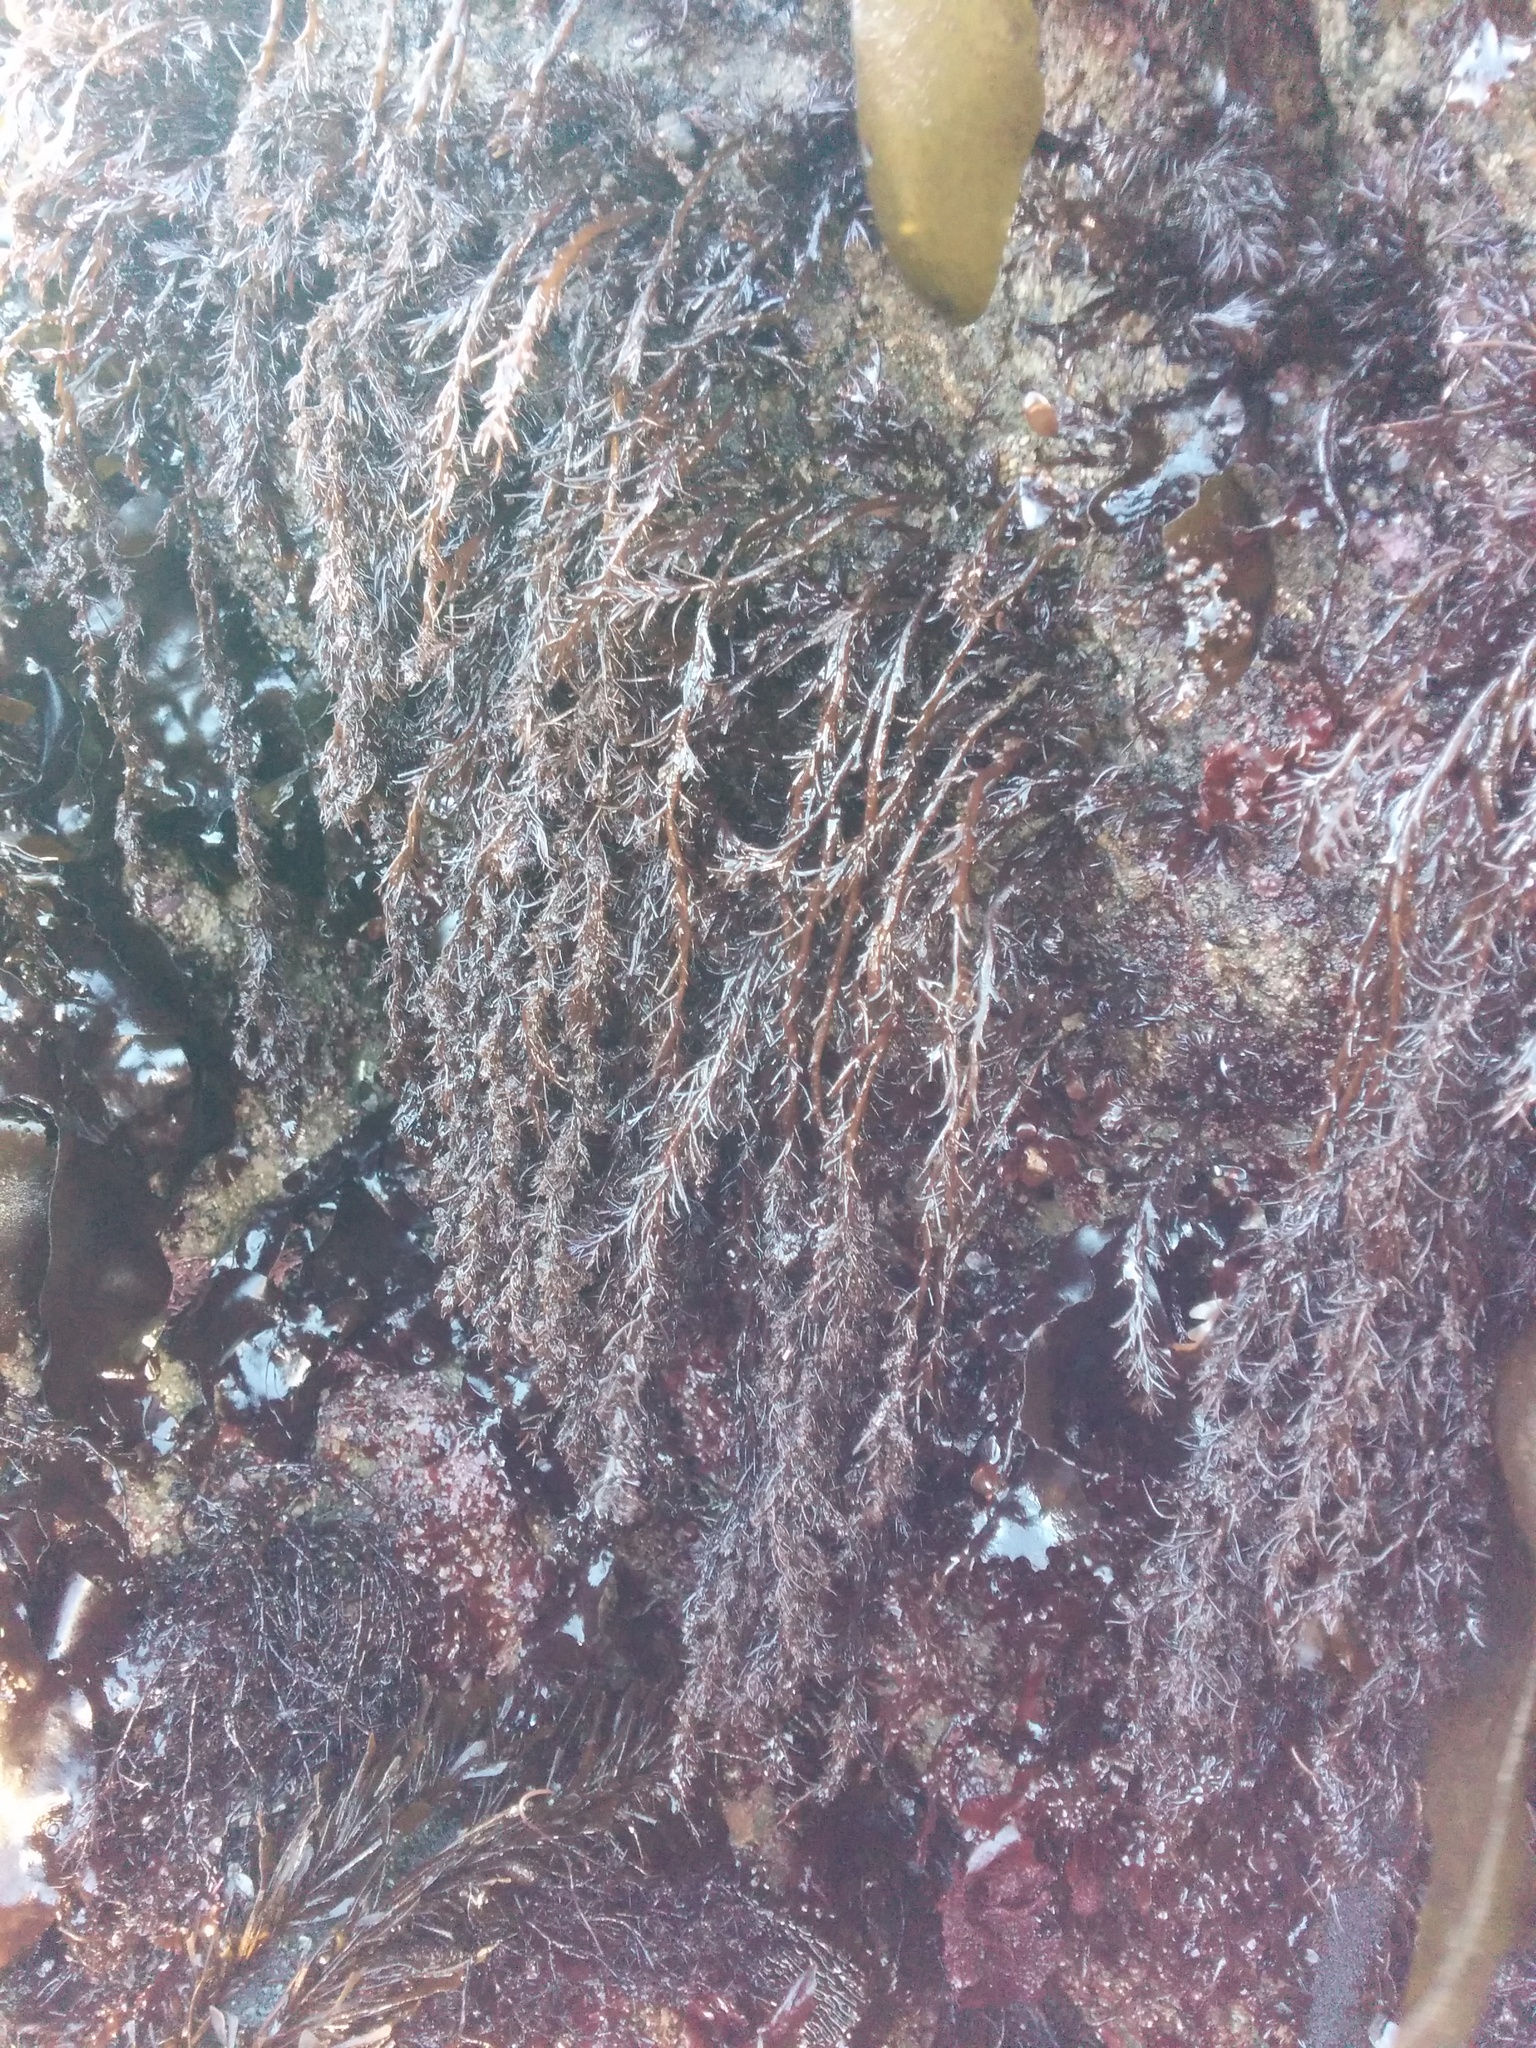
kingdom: Plantae
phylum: Rhodophyta
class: Florideophyceae
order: Ceramiales
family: Rhodomelaceae
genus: Neorhodomela
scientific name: Neorhodomela larix
